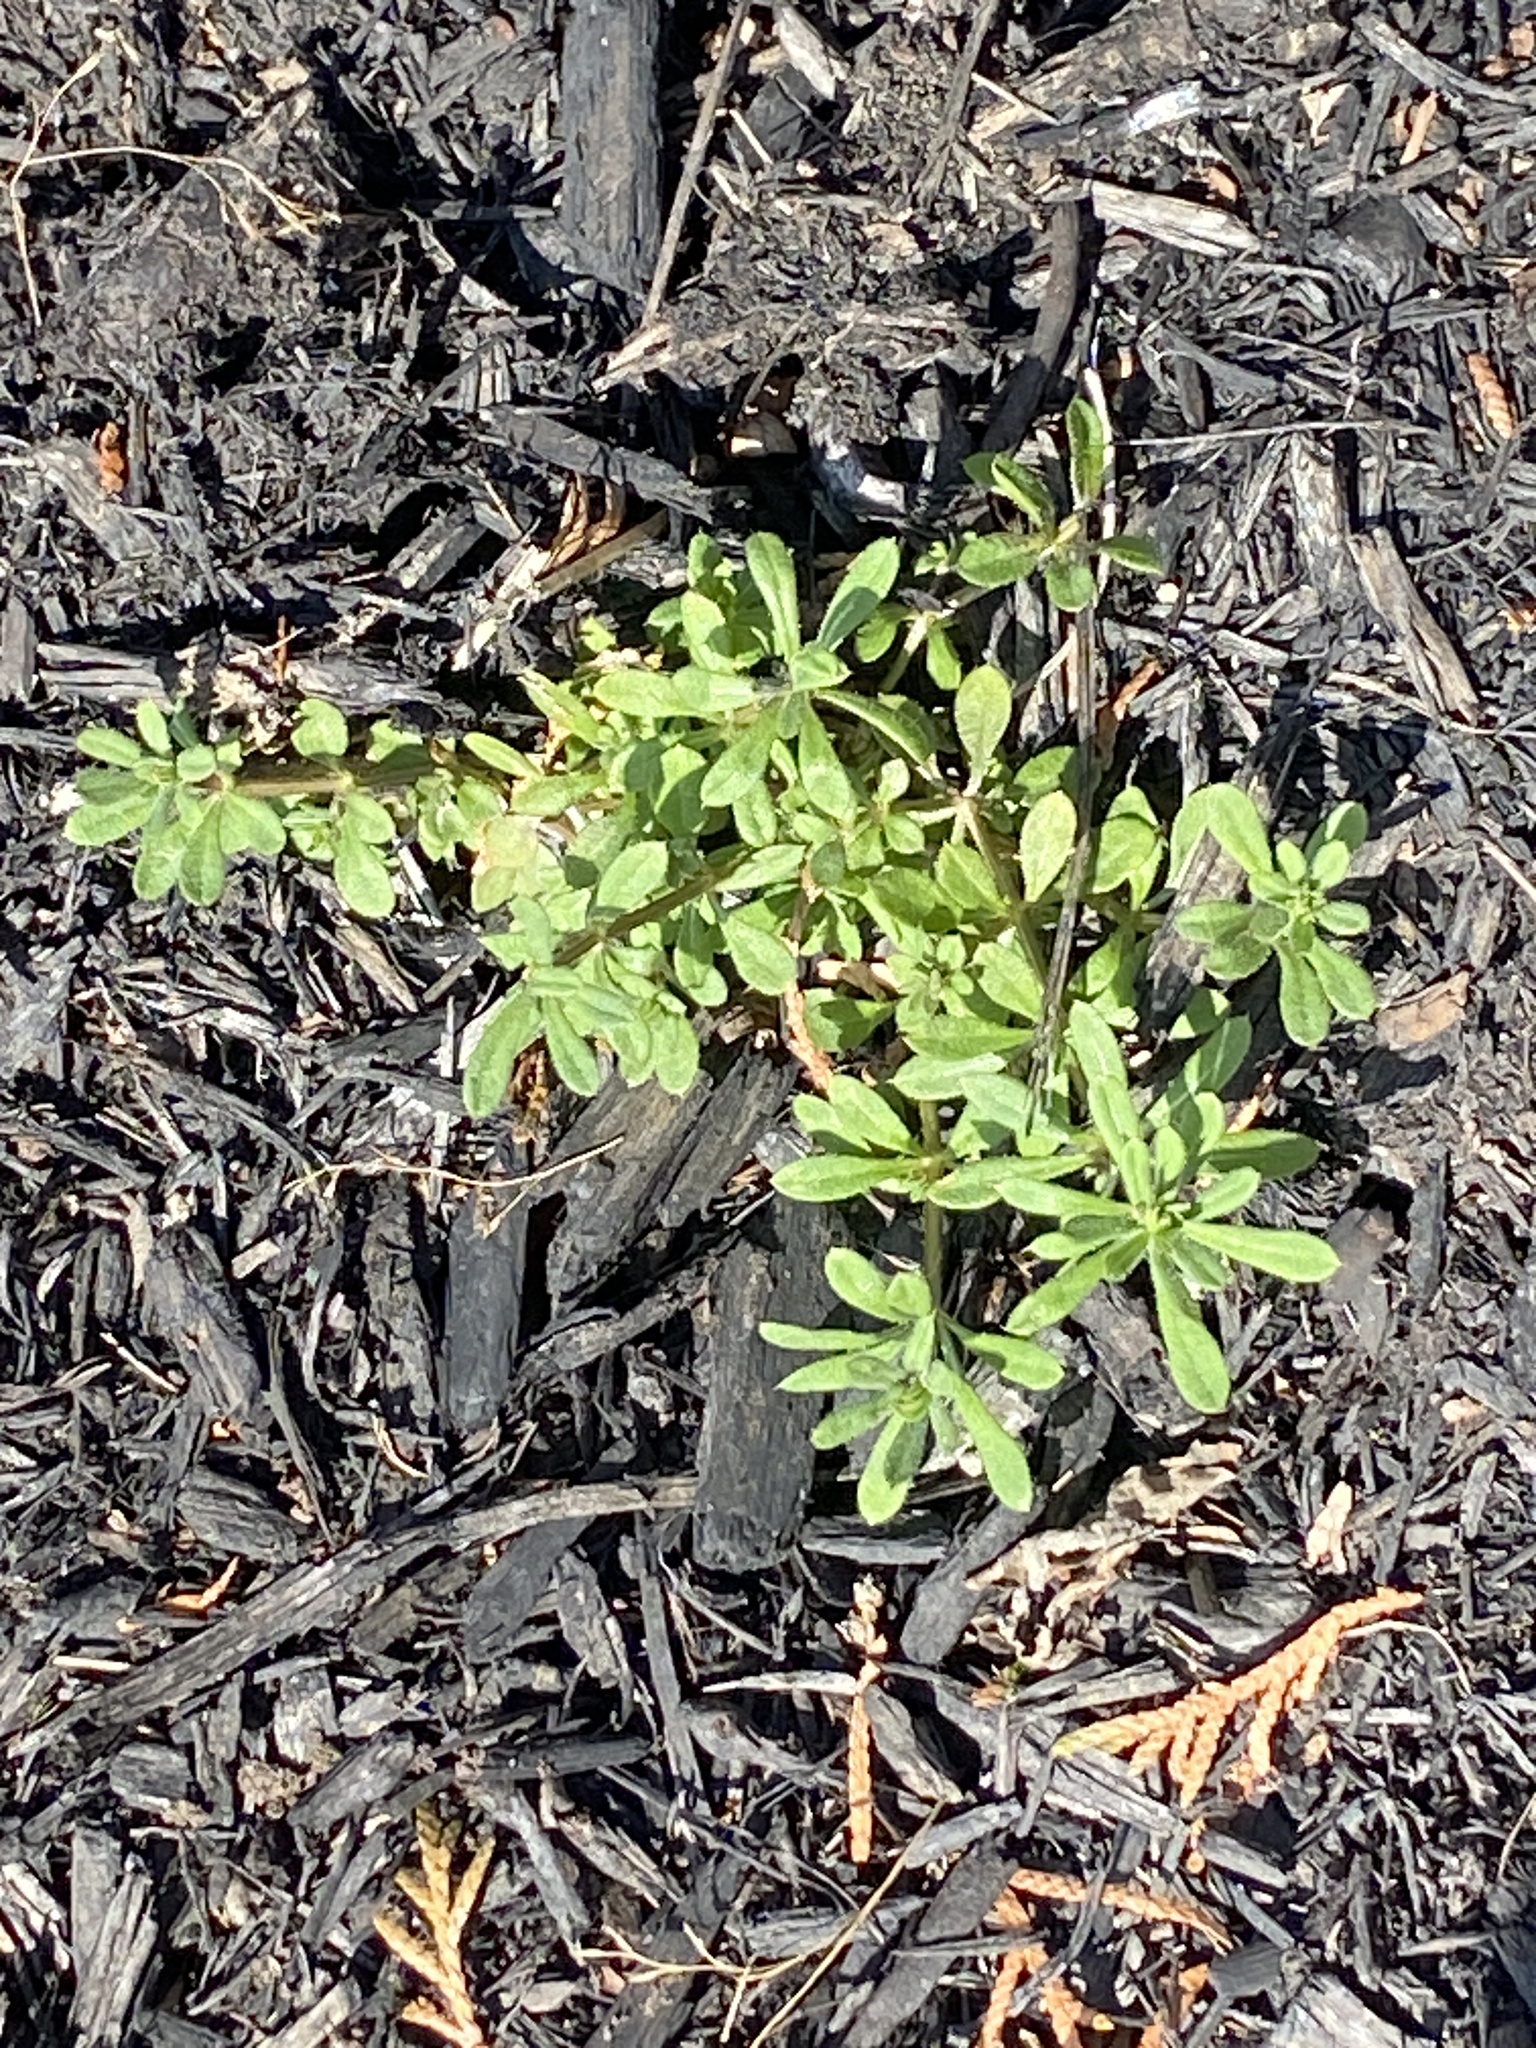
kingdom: Plantae
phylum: Tracheophyta
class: Magnoliopsida
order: Gentianales
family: Rubiaceae
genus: Galium
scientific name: Galium aparine
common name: Cleavers
